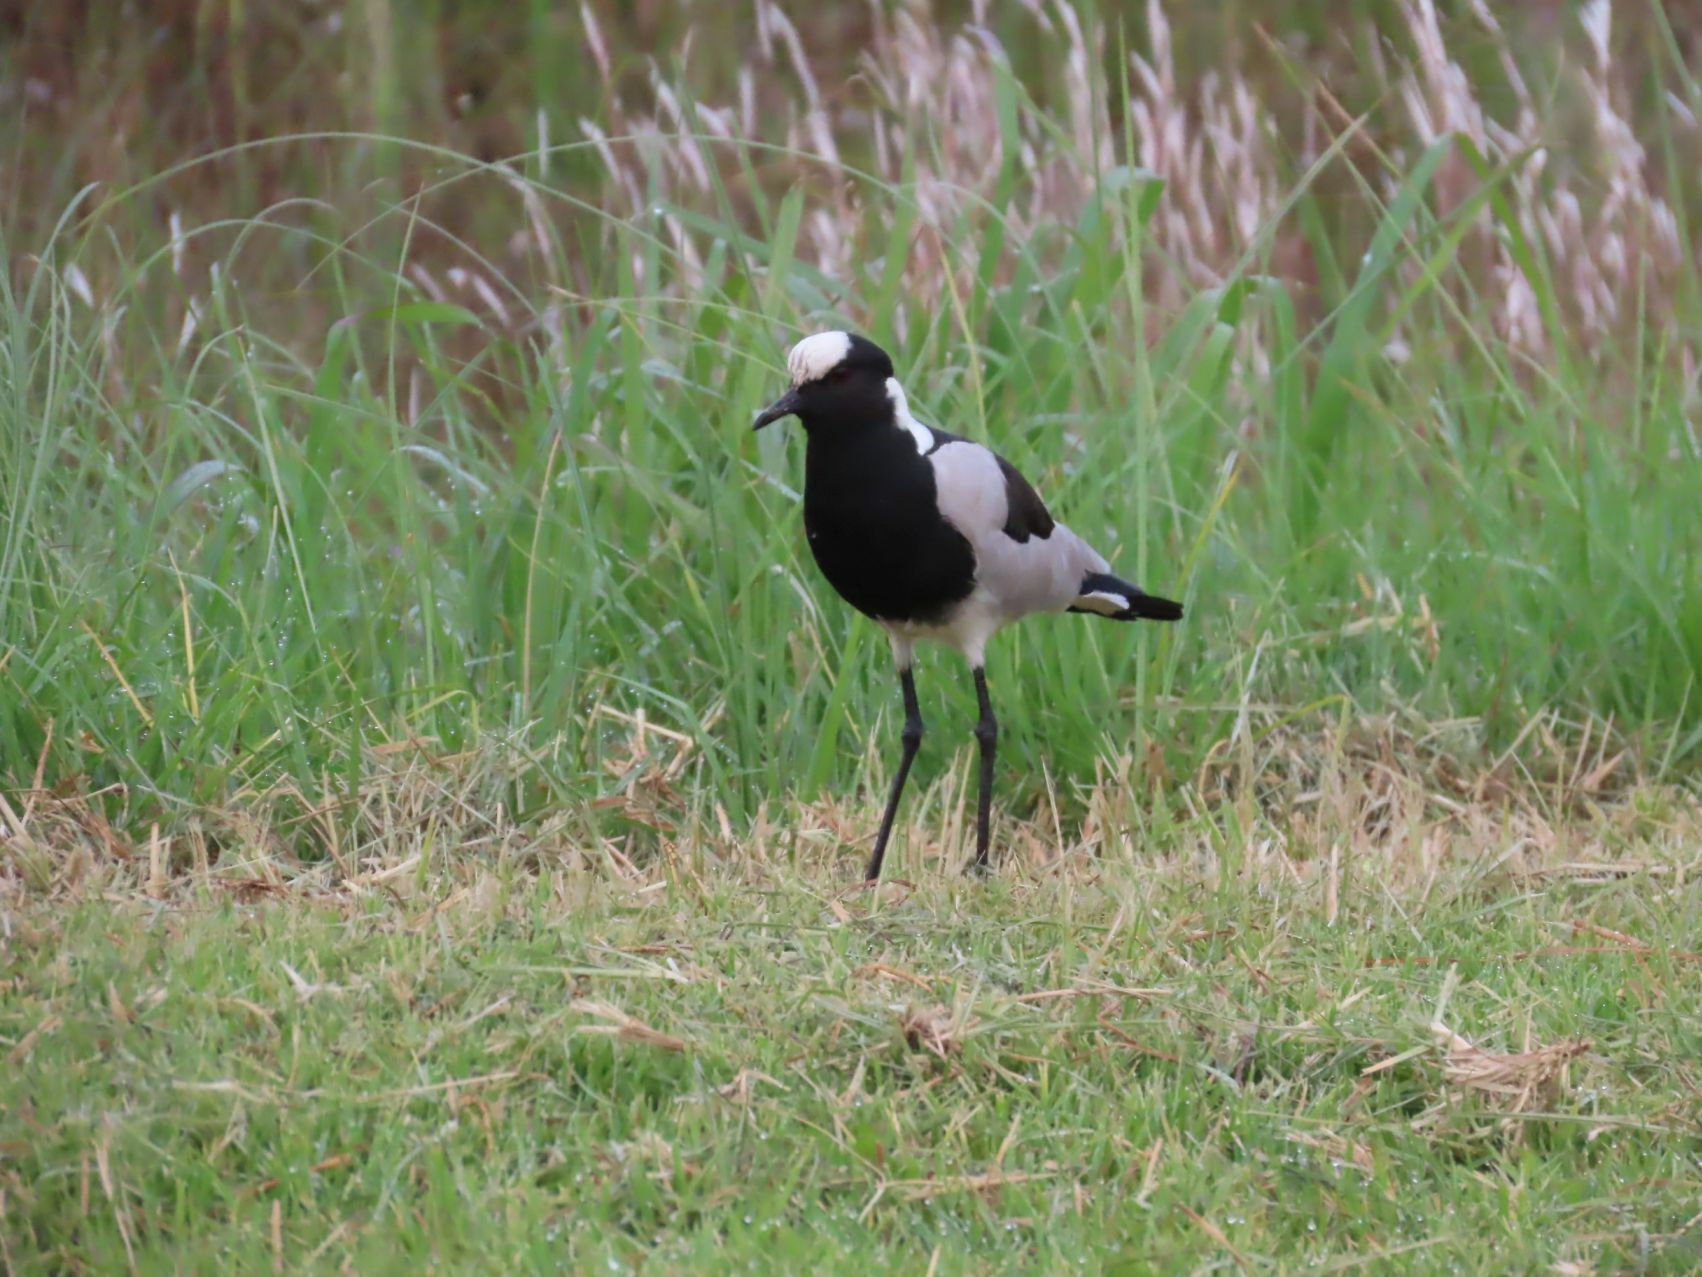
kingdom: Animalia
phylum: Chordata
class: Aves
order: Charadriiformes
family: Charadriidae
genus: Vanellus
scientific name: Vanellus armatus
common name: Blacksmith lapwing
